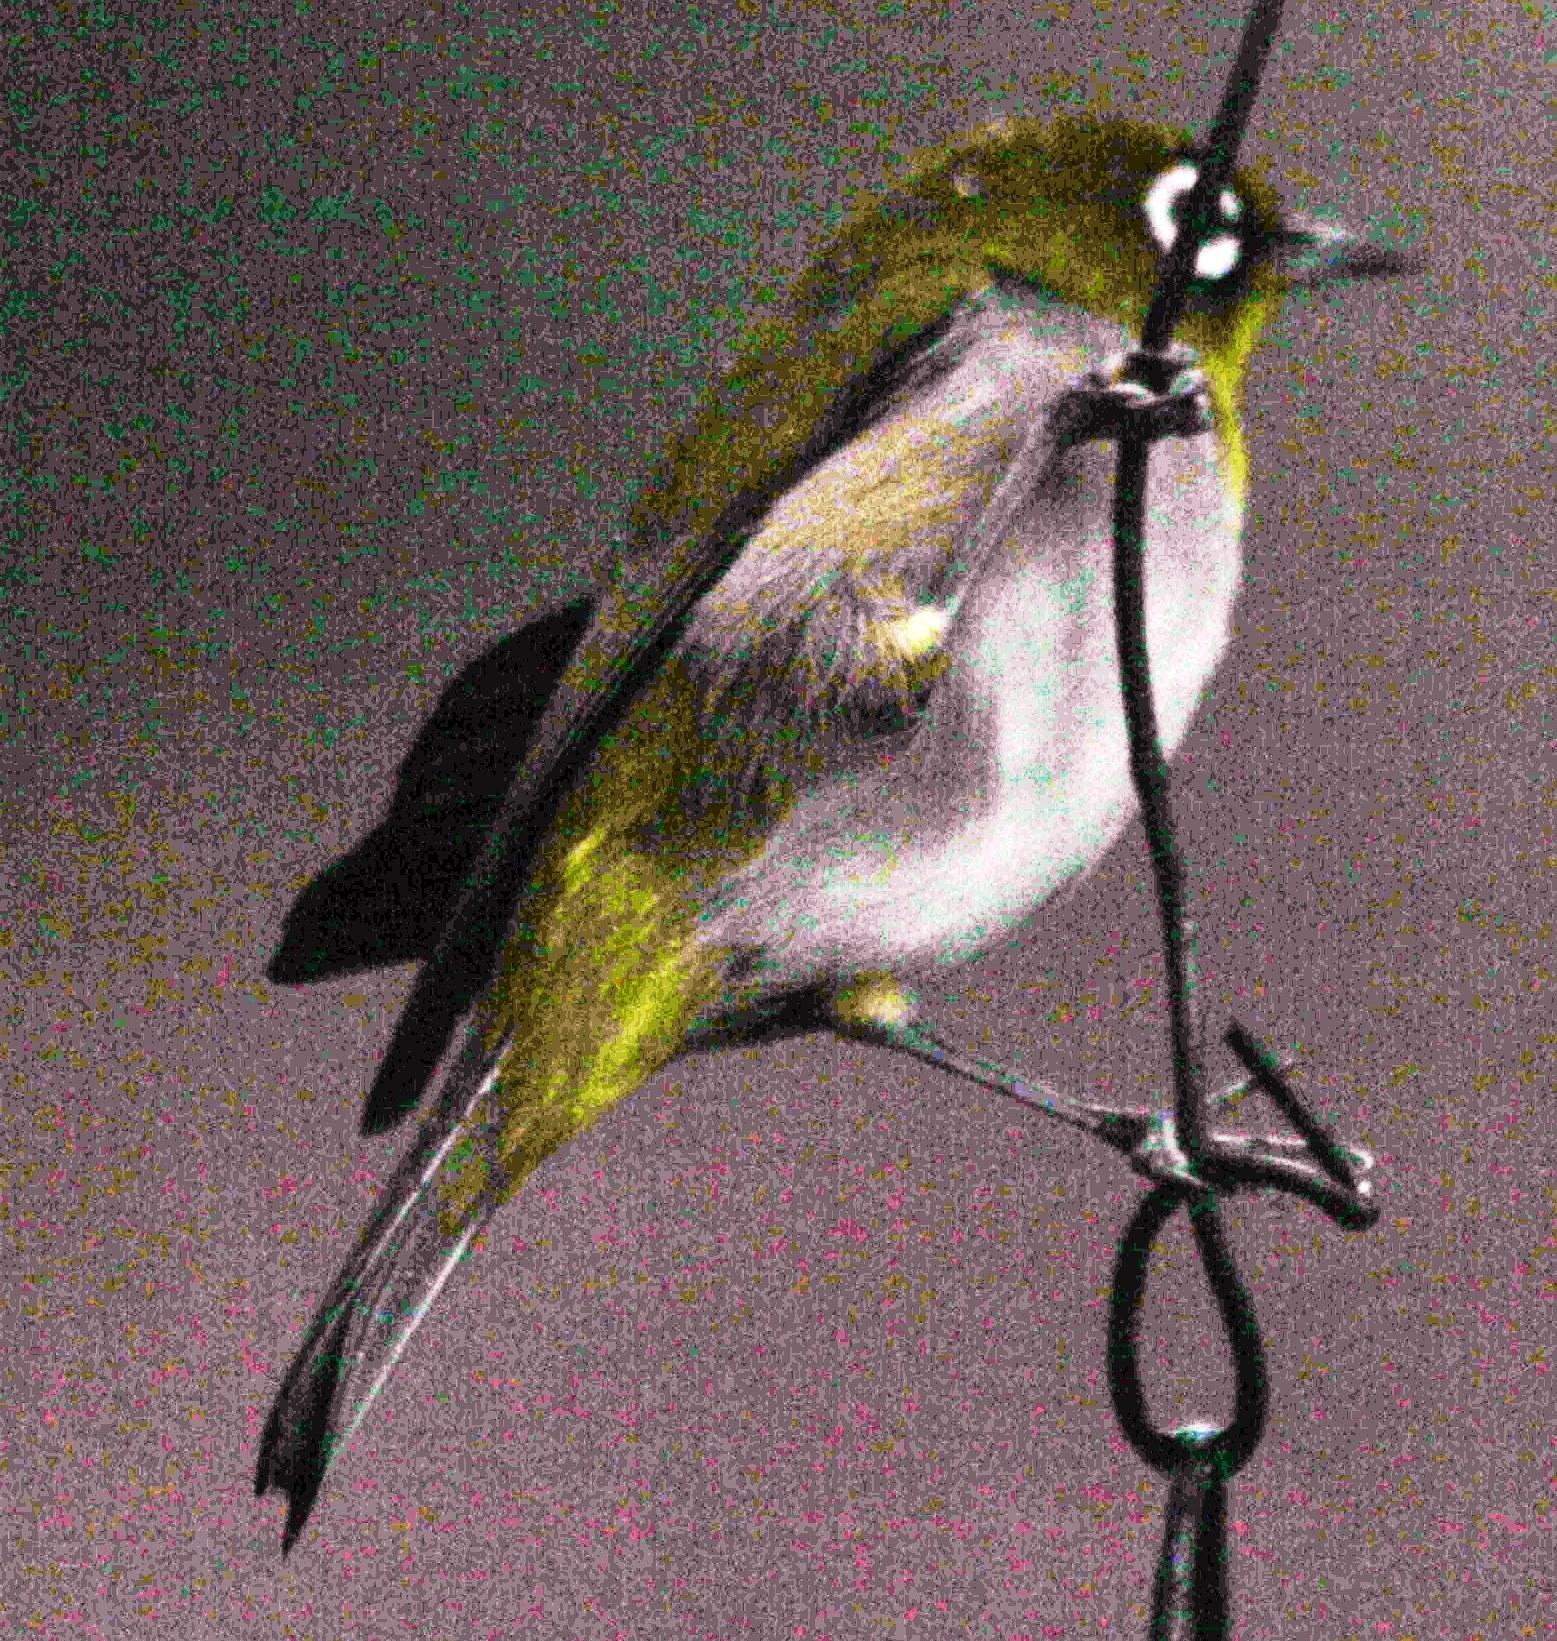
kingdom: Animalia
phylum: Chordata
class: Aves
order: Passeriformes
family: Zosteropidae
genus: Zosterops
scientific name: Zosterops virens
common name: Cape white-eye
